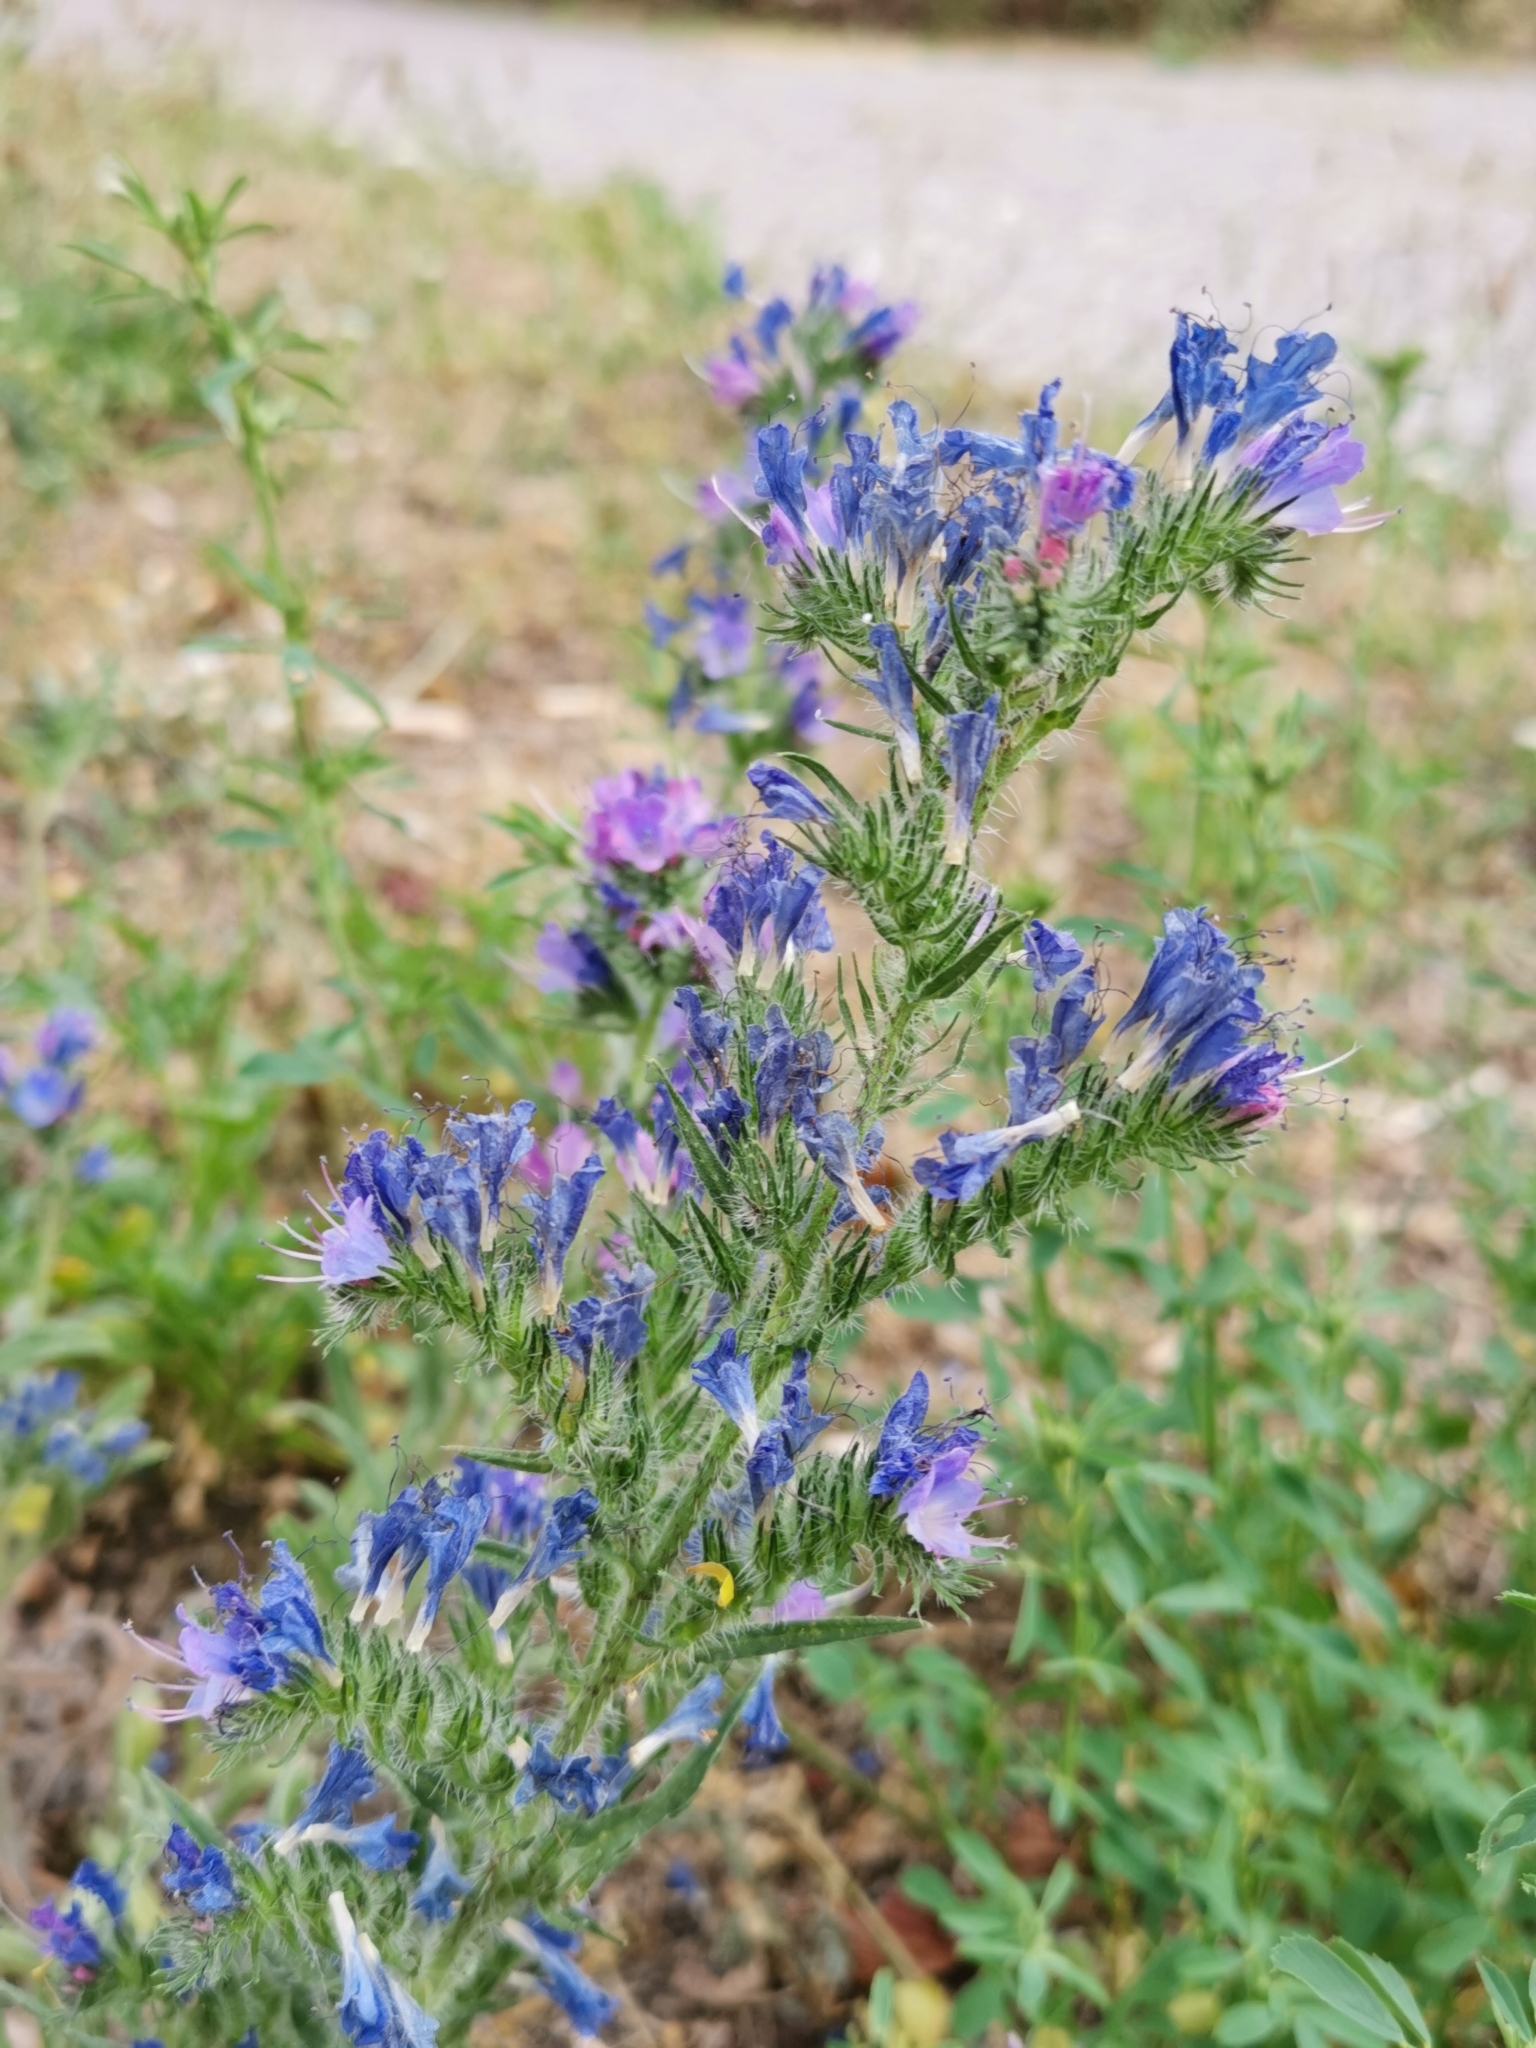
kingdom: Plantae
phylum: Tracheophyta
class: Magnoliopsida
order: Boraginales
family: Boraginaceae
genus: Echium
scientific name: Echium vulgare
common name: Common viper's bugloss
